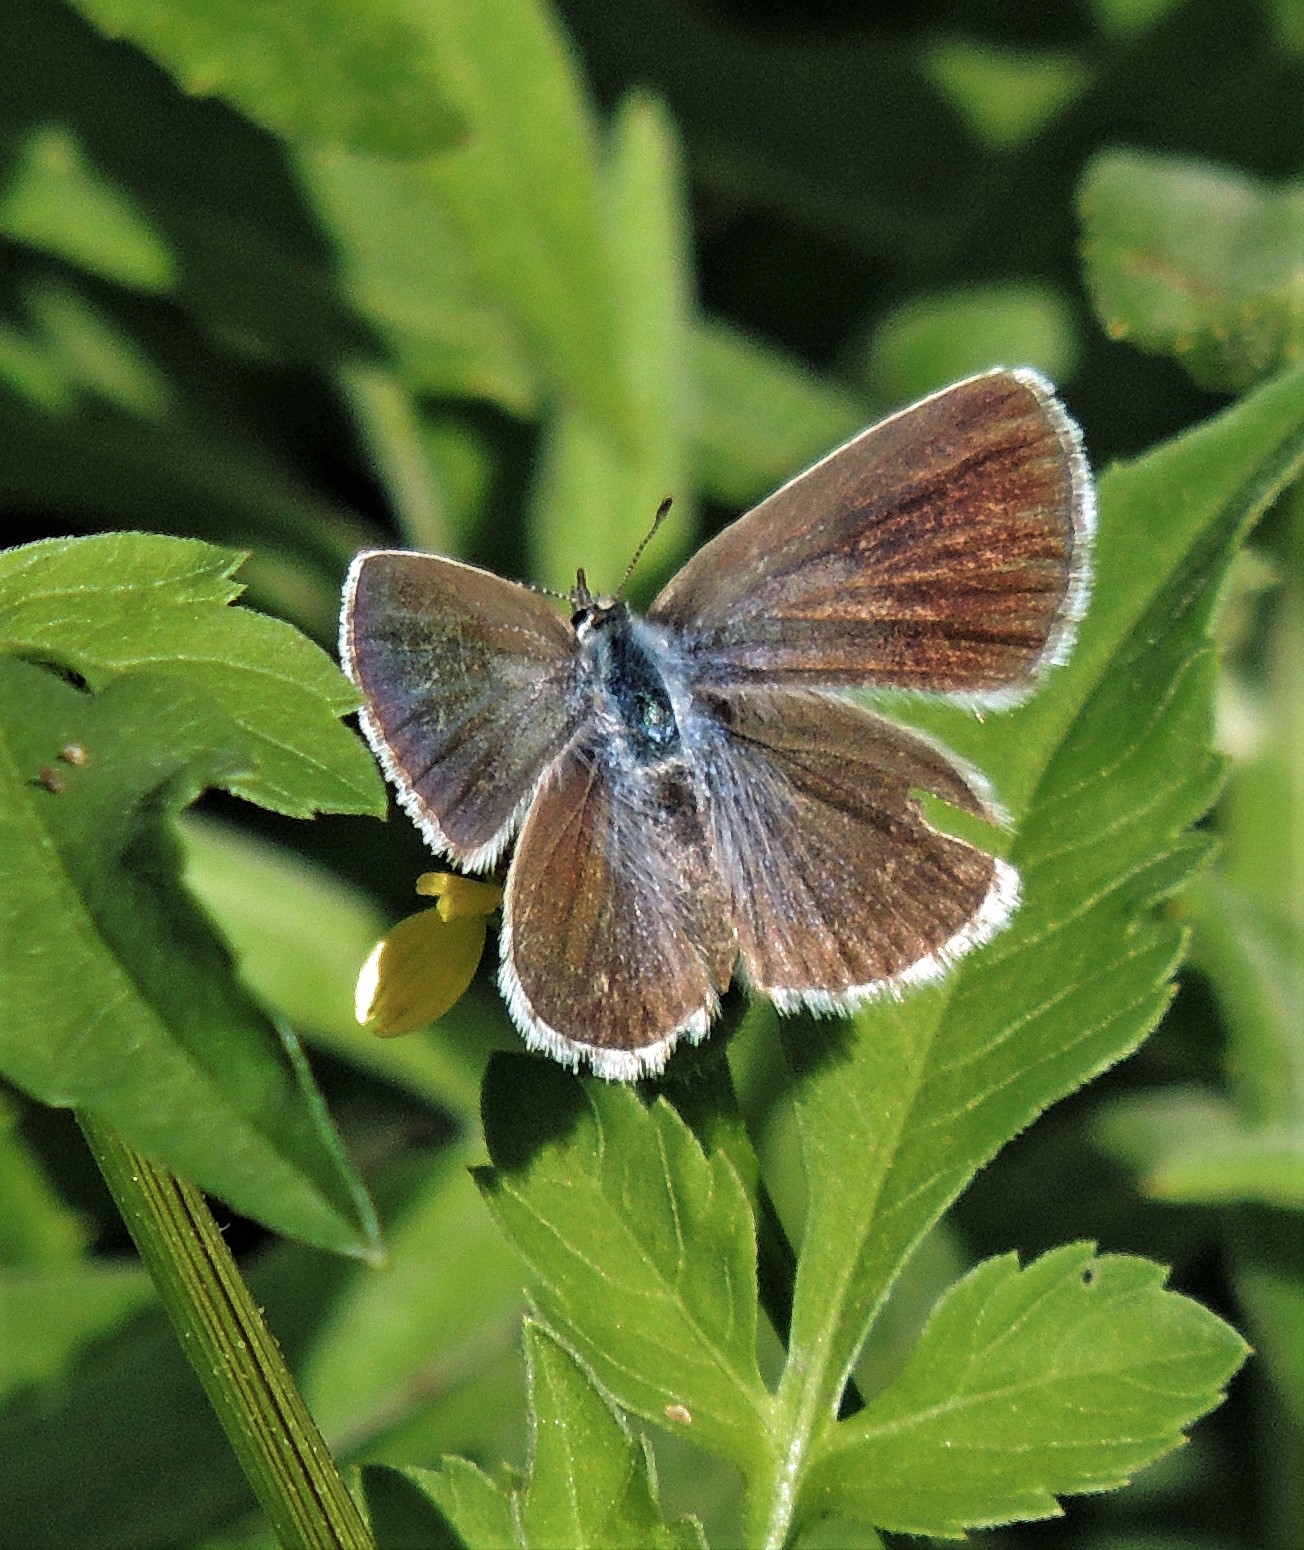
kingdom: Animalia
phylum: Arthropoda
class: Insecta
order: Lepidoptera
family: Lycaenidae
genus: Hemiargus
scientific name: Hemiargus hanno
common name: Common blue
